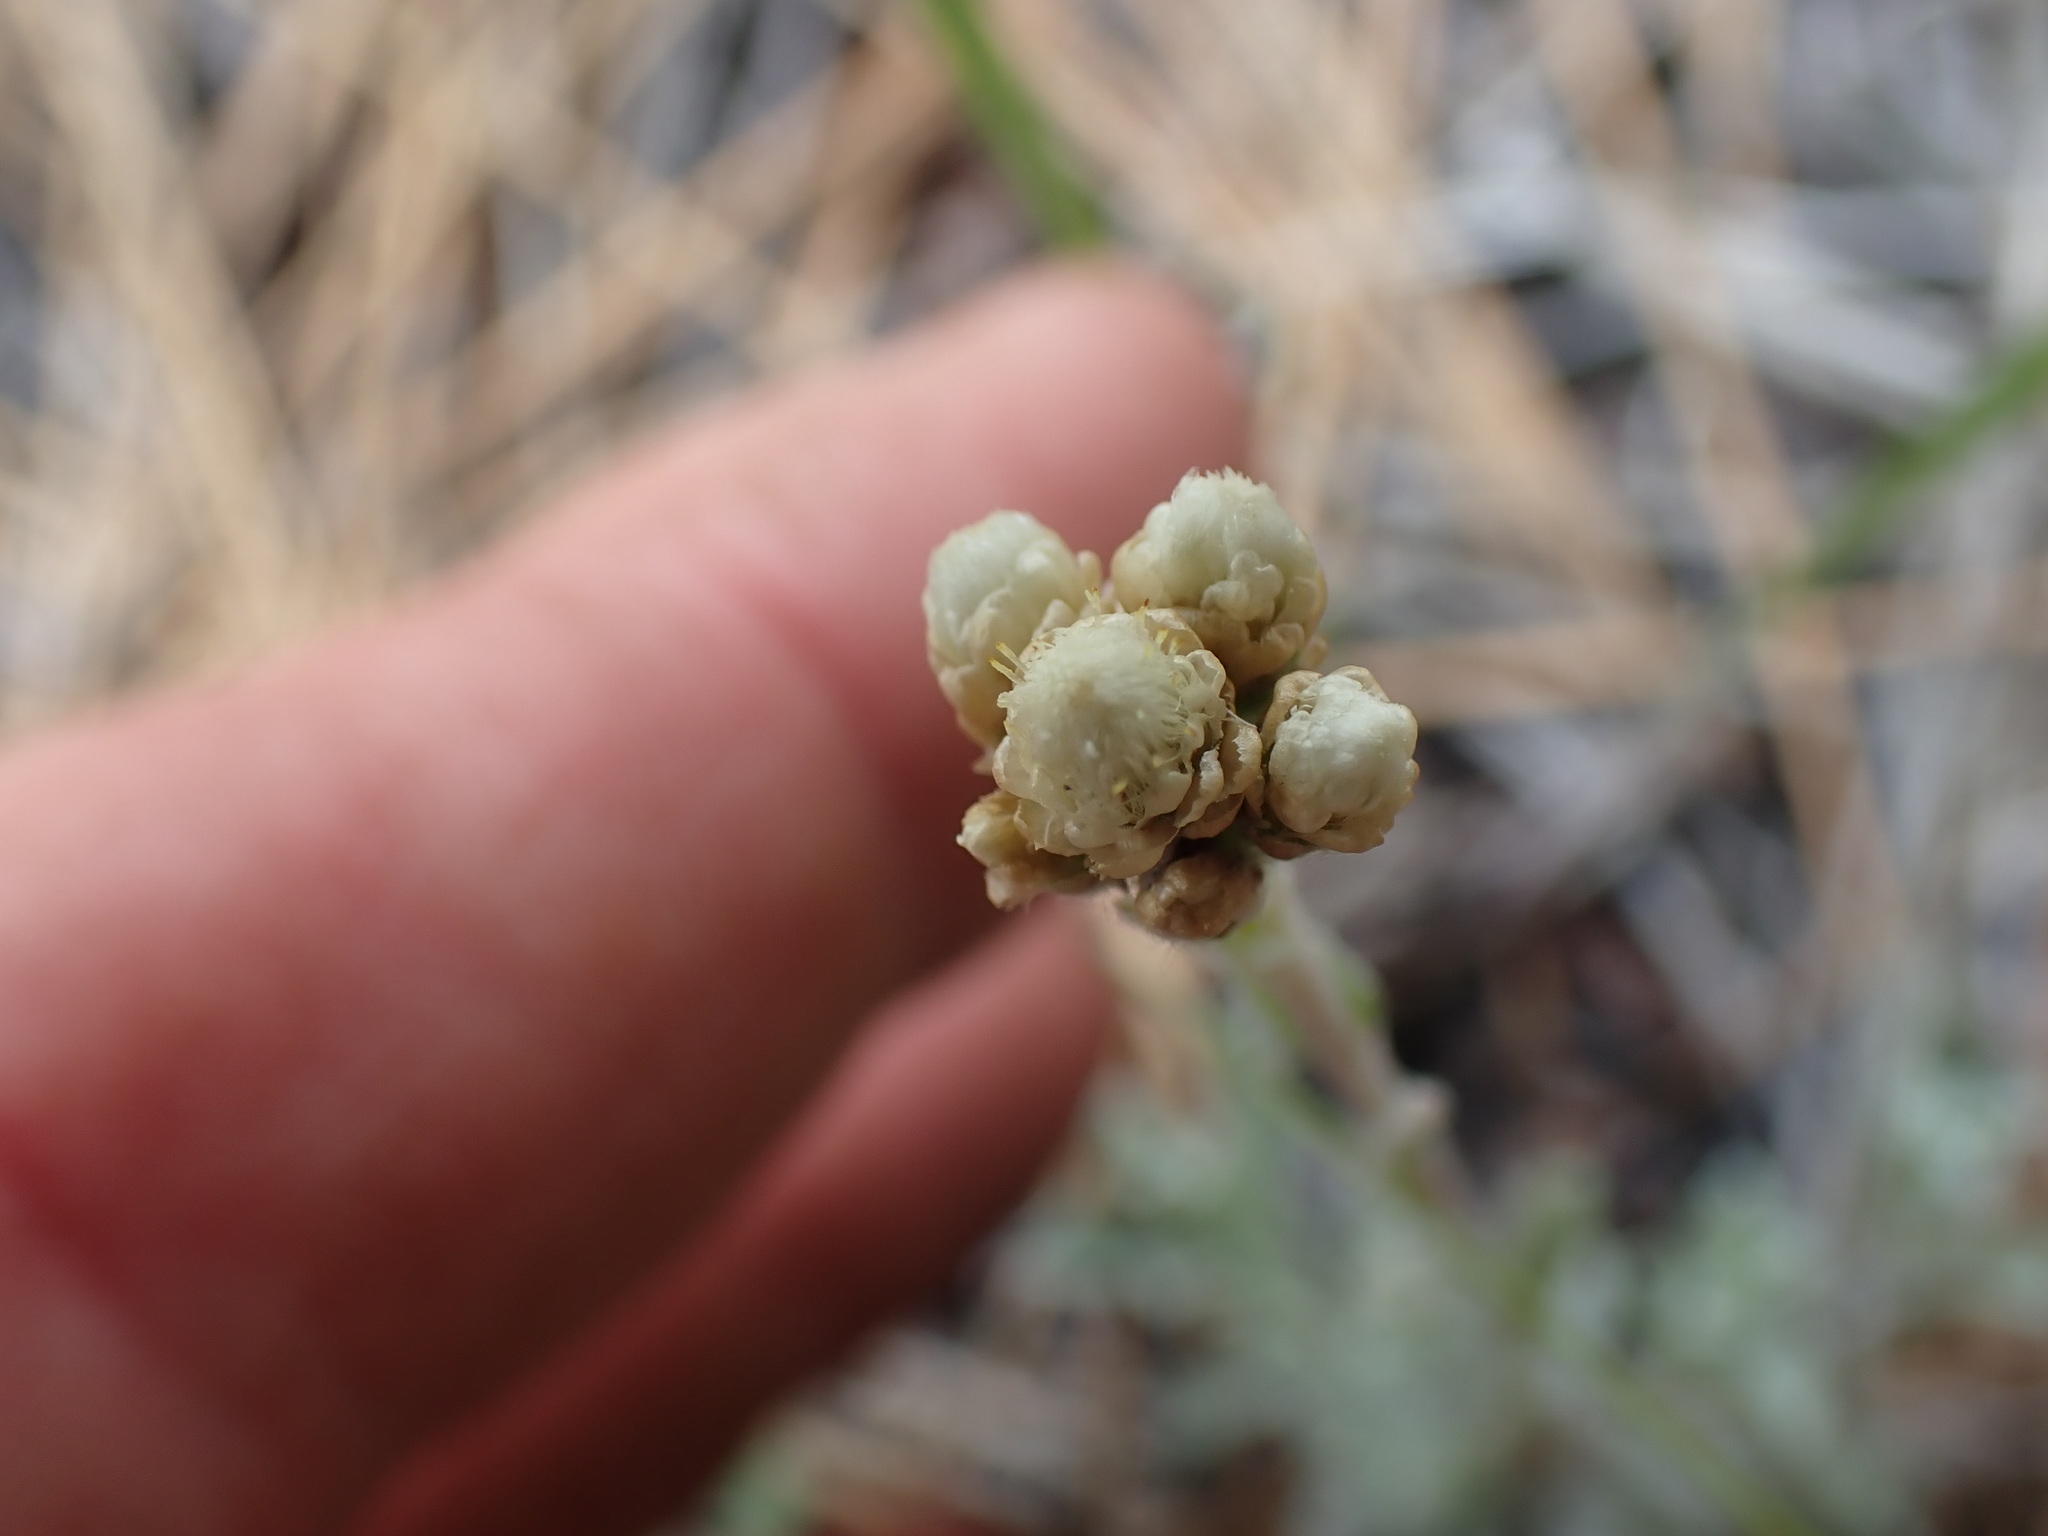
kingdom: Plantae
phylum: Tracheophyta
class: Magnoliopsida
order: Asterales
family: Asteraceae
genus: Antennaria
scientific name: Antennaria umbrinella
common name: Brown pussytoes
